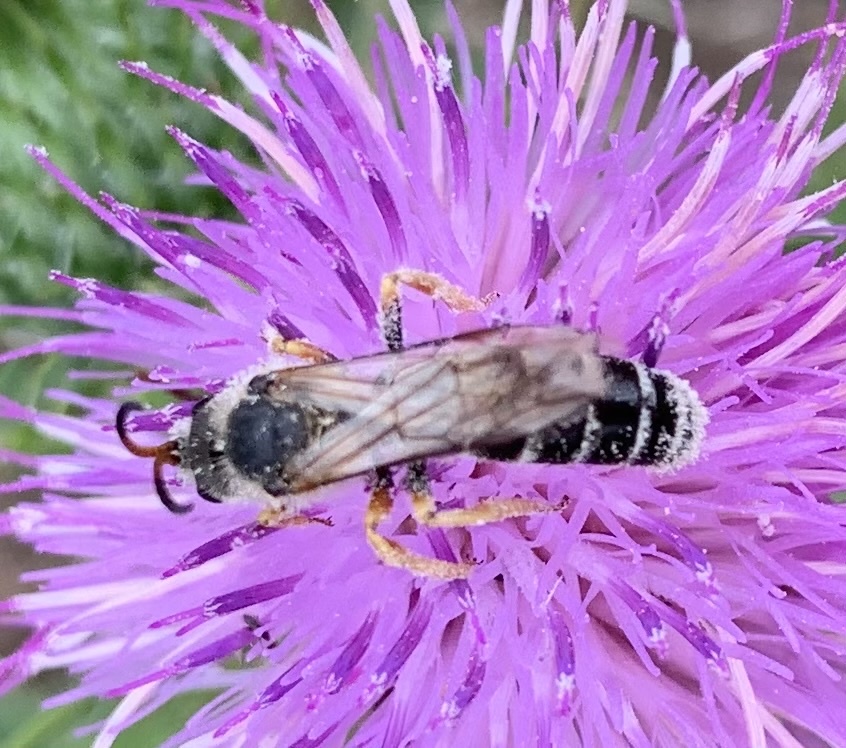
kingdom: Animalia
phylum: Arthropoda
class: Insecta
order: Hymenoptera
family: Halictidae
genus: Halictus
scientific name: Halictus sexcinctus
